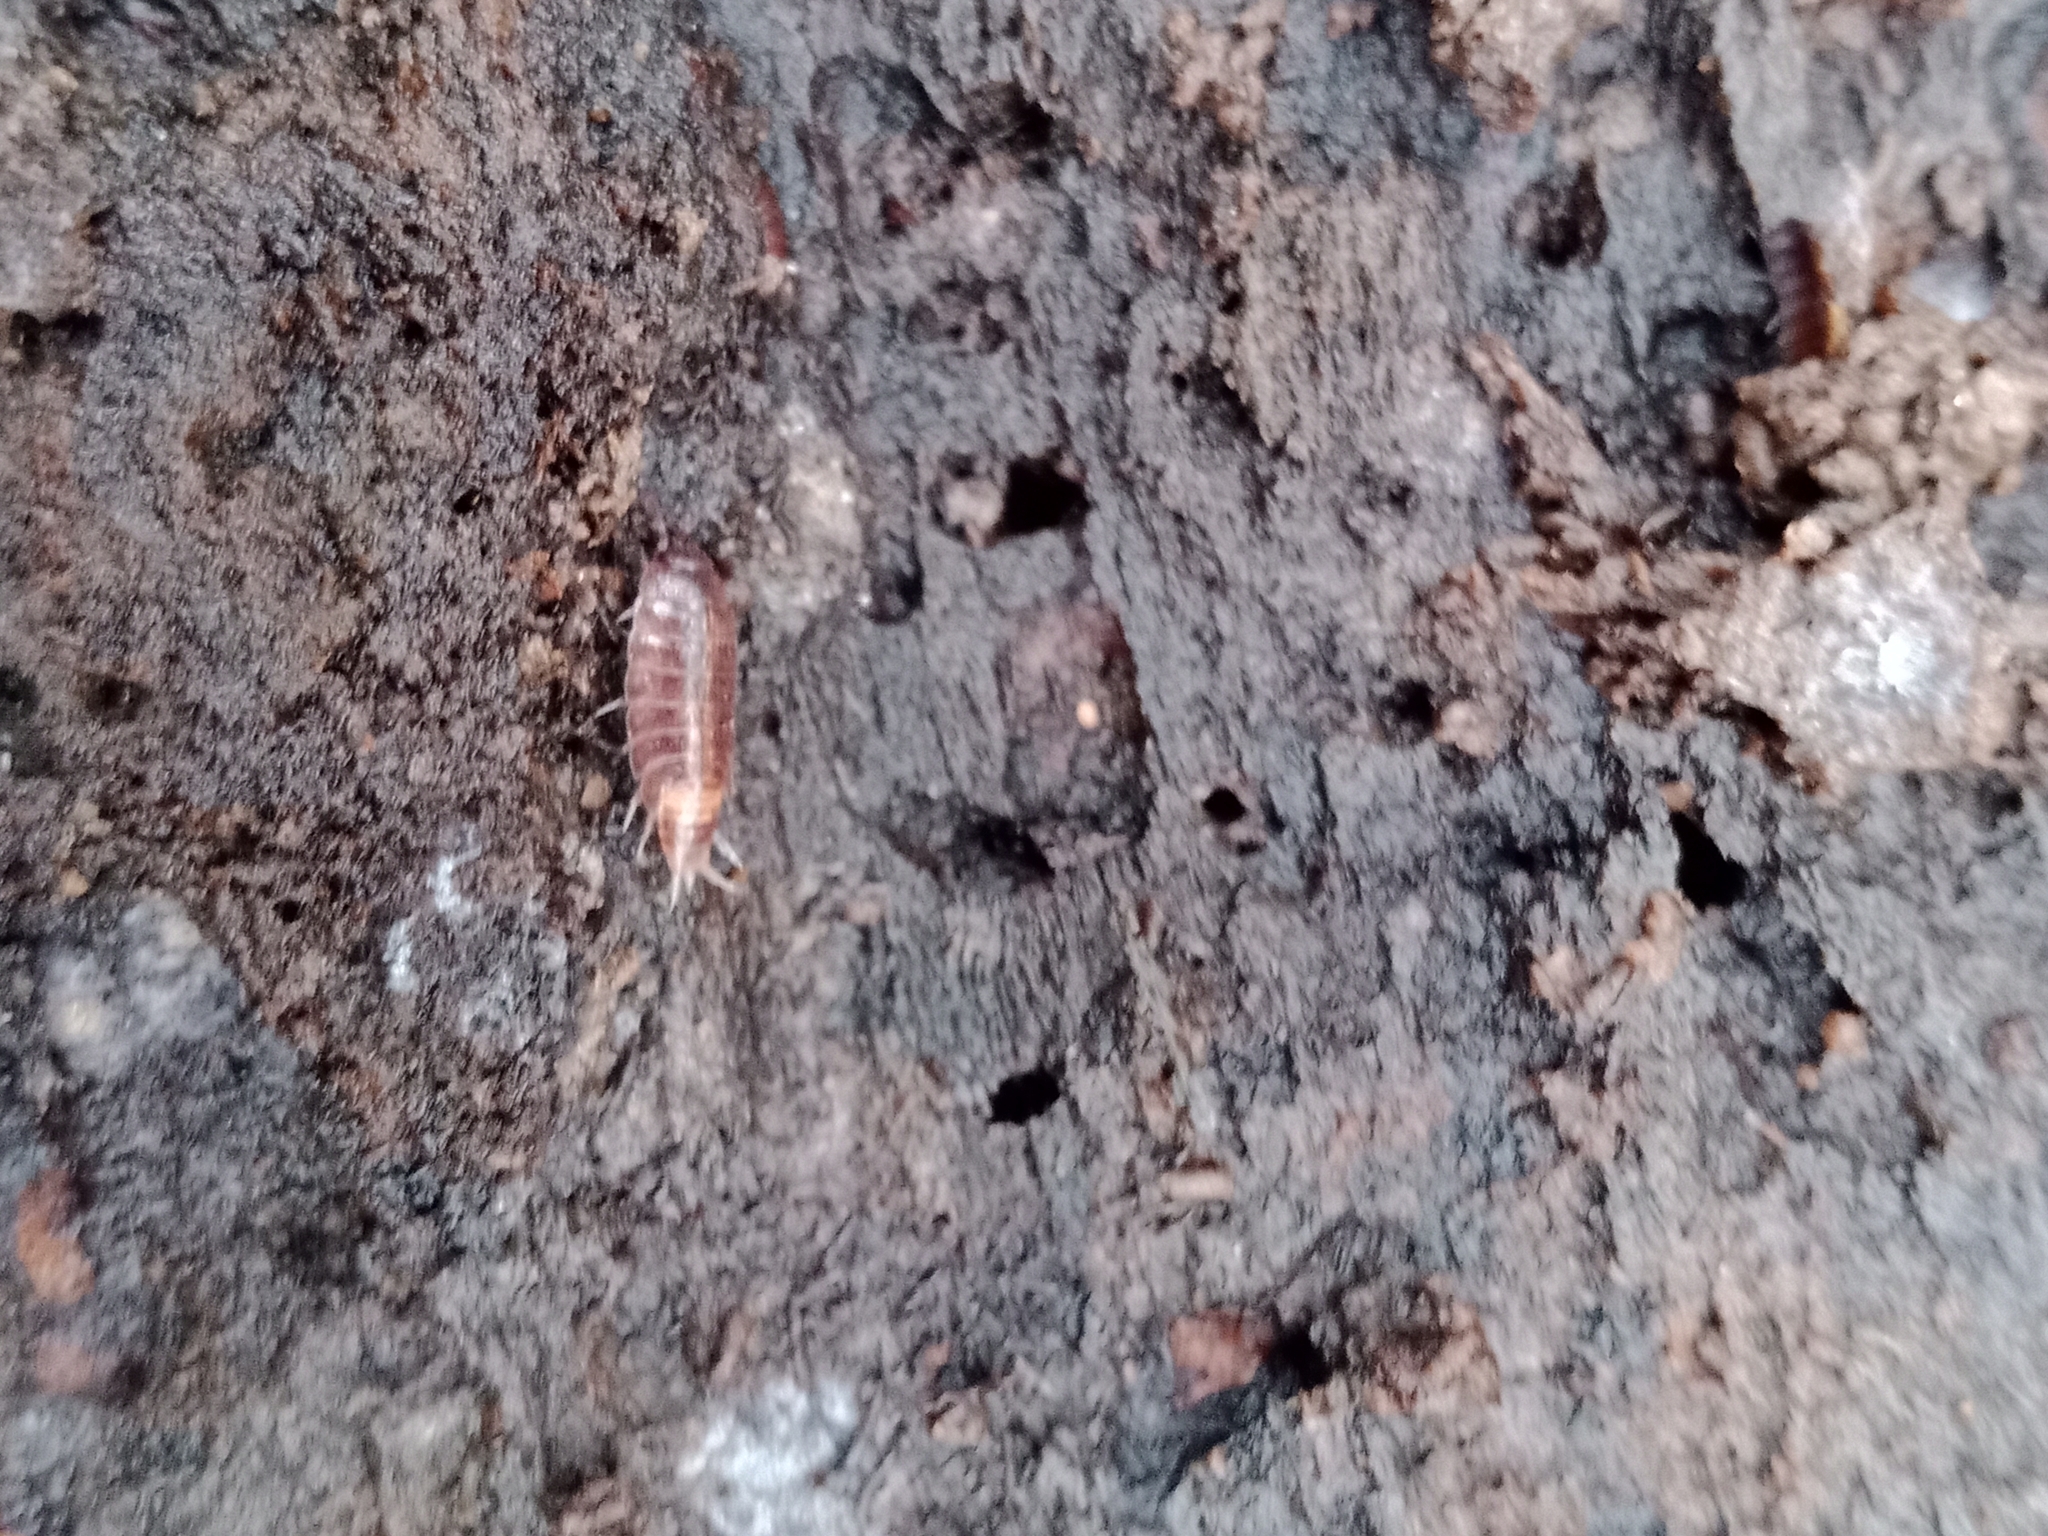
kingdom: Animalia
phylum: Arthropoda
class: Malacostraca
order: Isopoda
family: Trichoniscidae
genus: Hyloniscus
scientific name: Hyloniscus riparius
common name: Isopod
